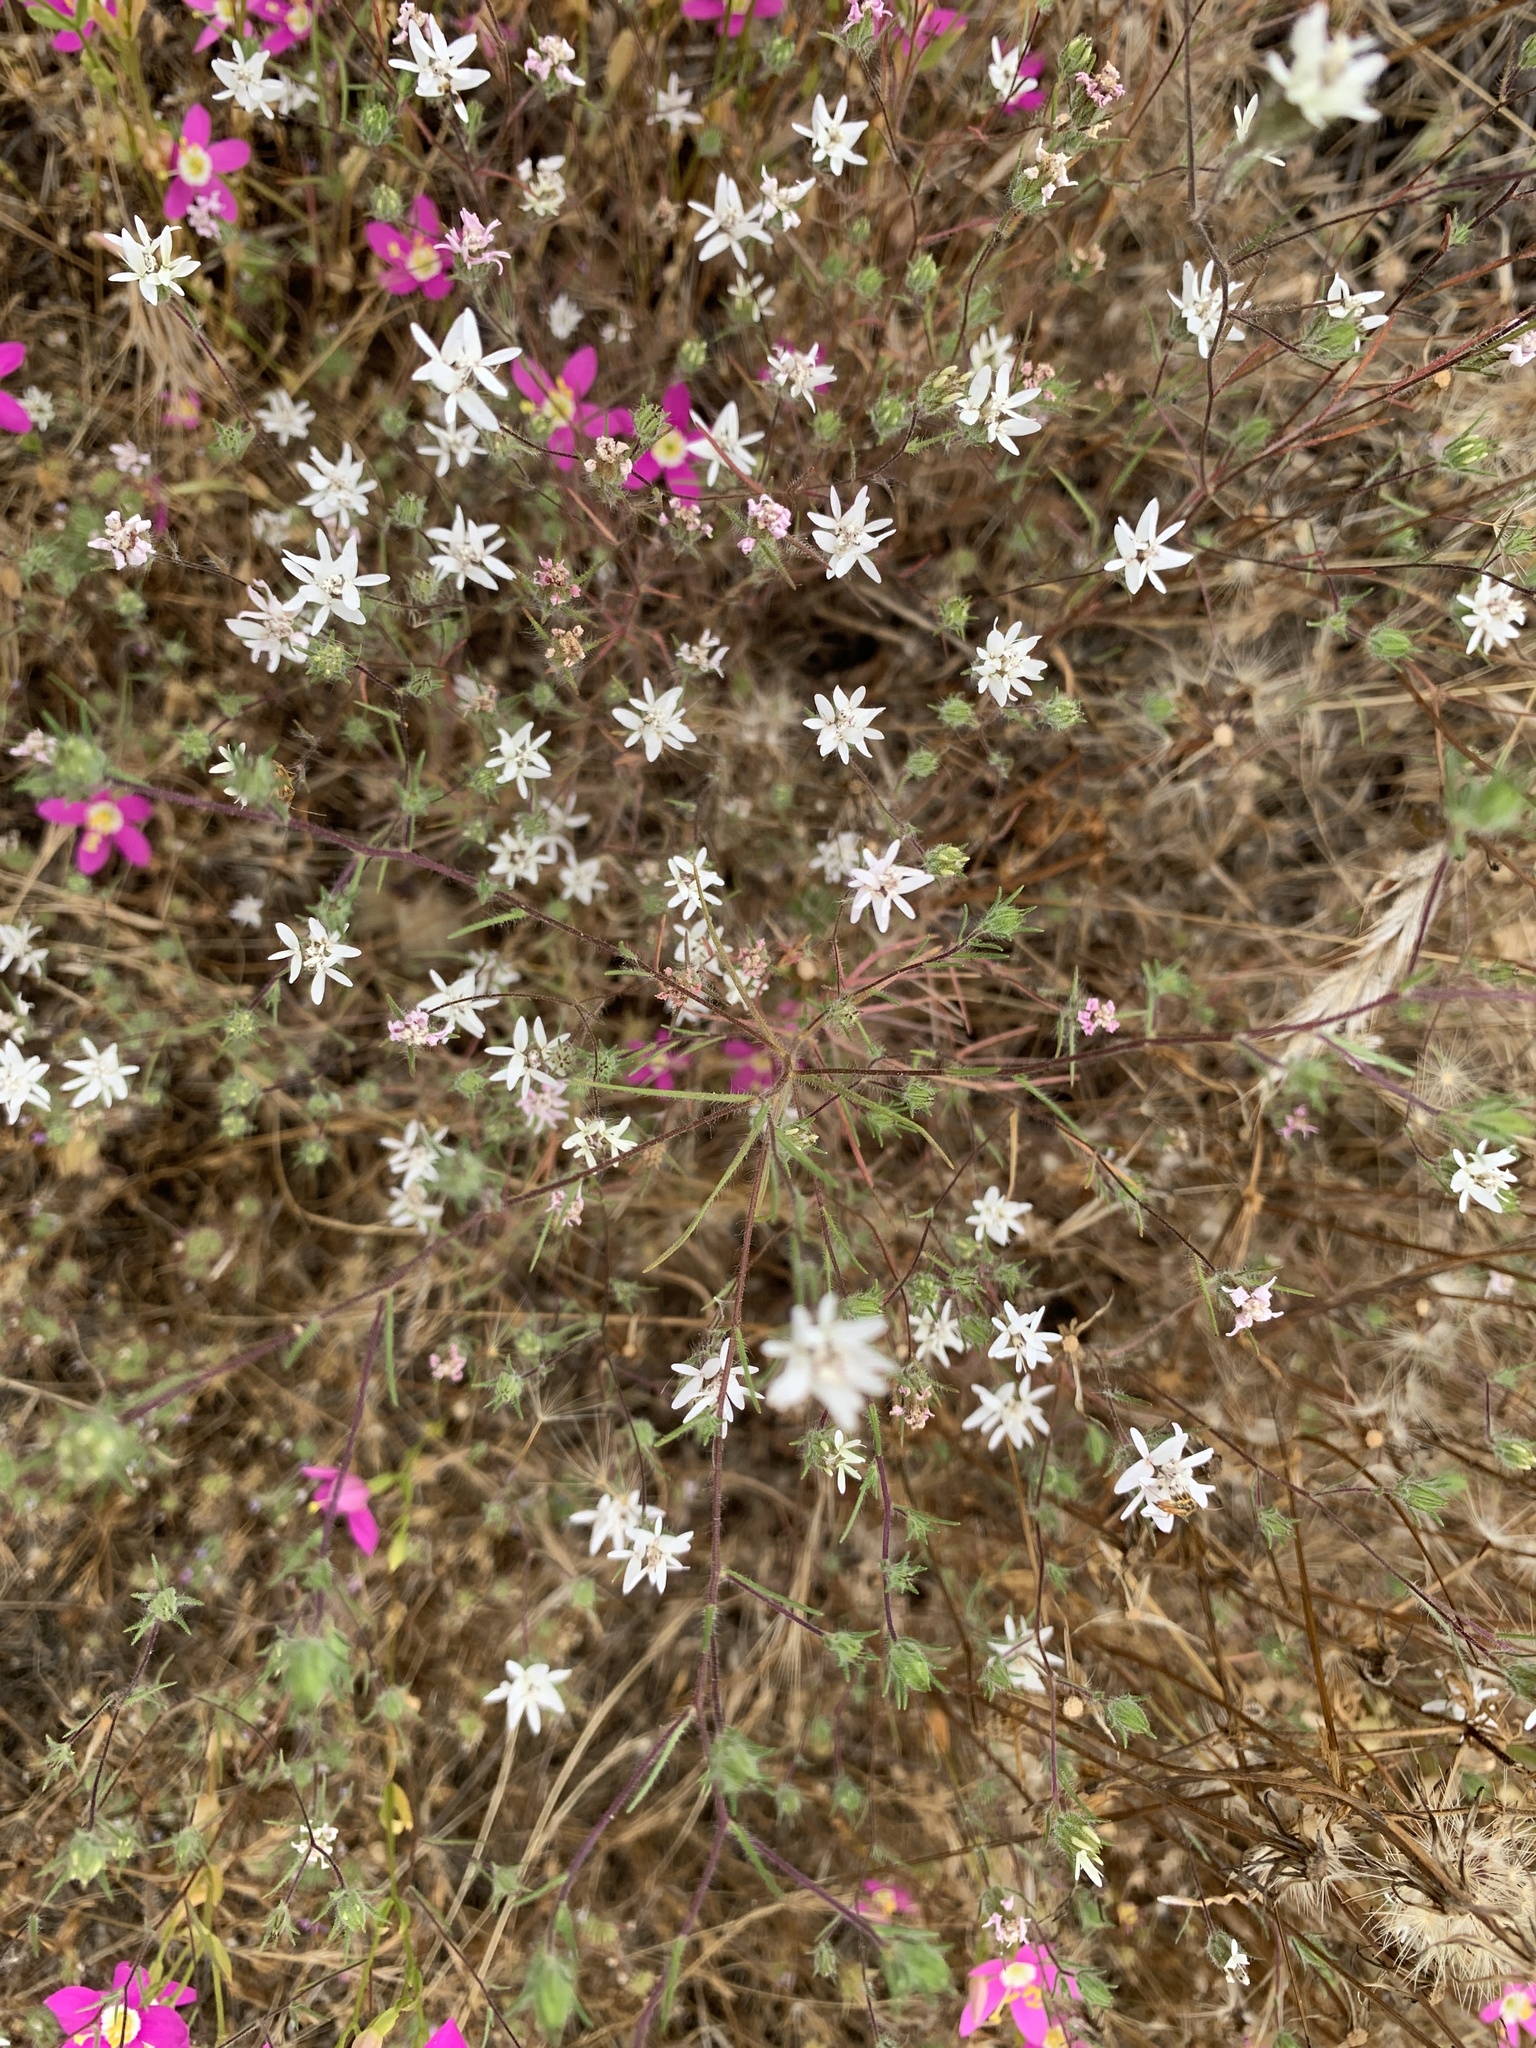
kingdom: Plantae
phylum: Tracheophyta
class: Magnoliopsida
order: Asterales
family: Asteraceae
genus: Osmadenia
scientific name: Osmadenia tenella
